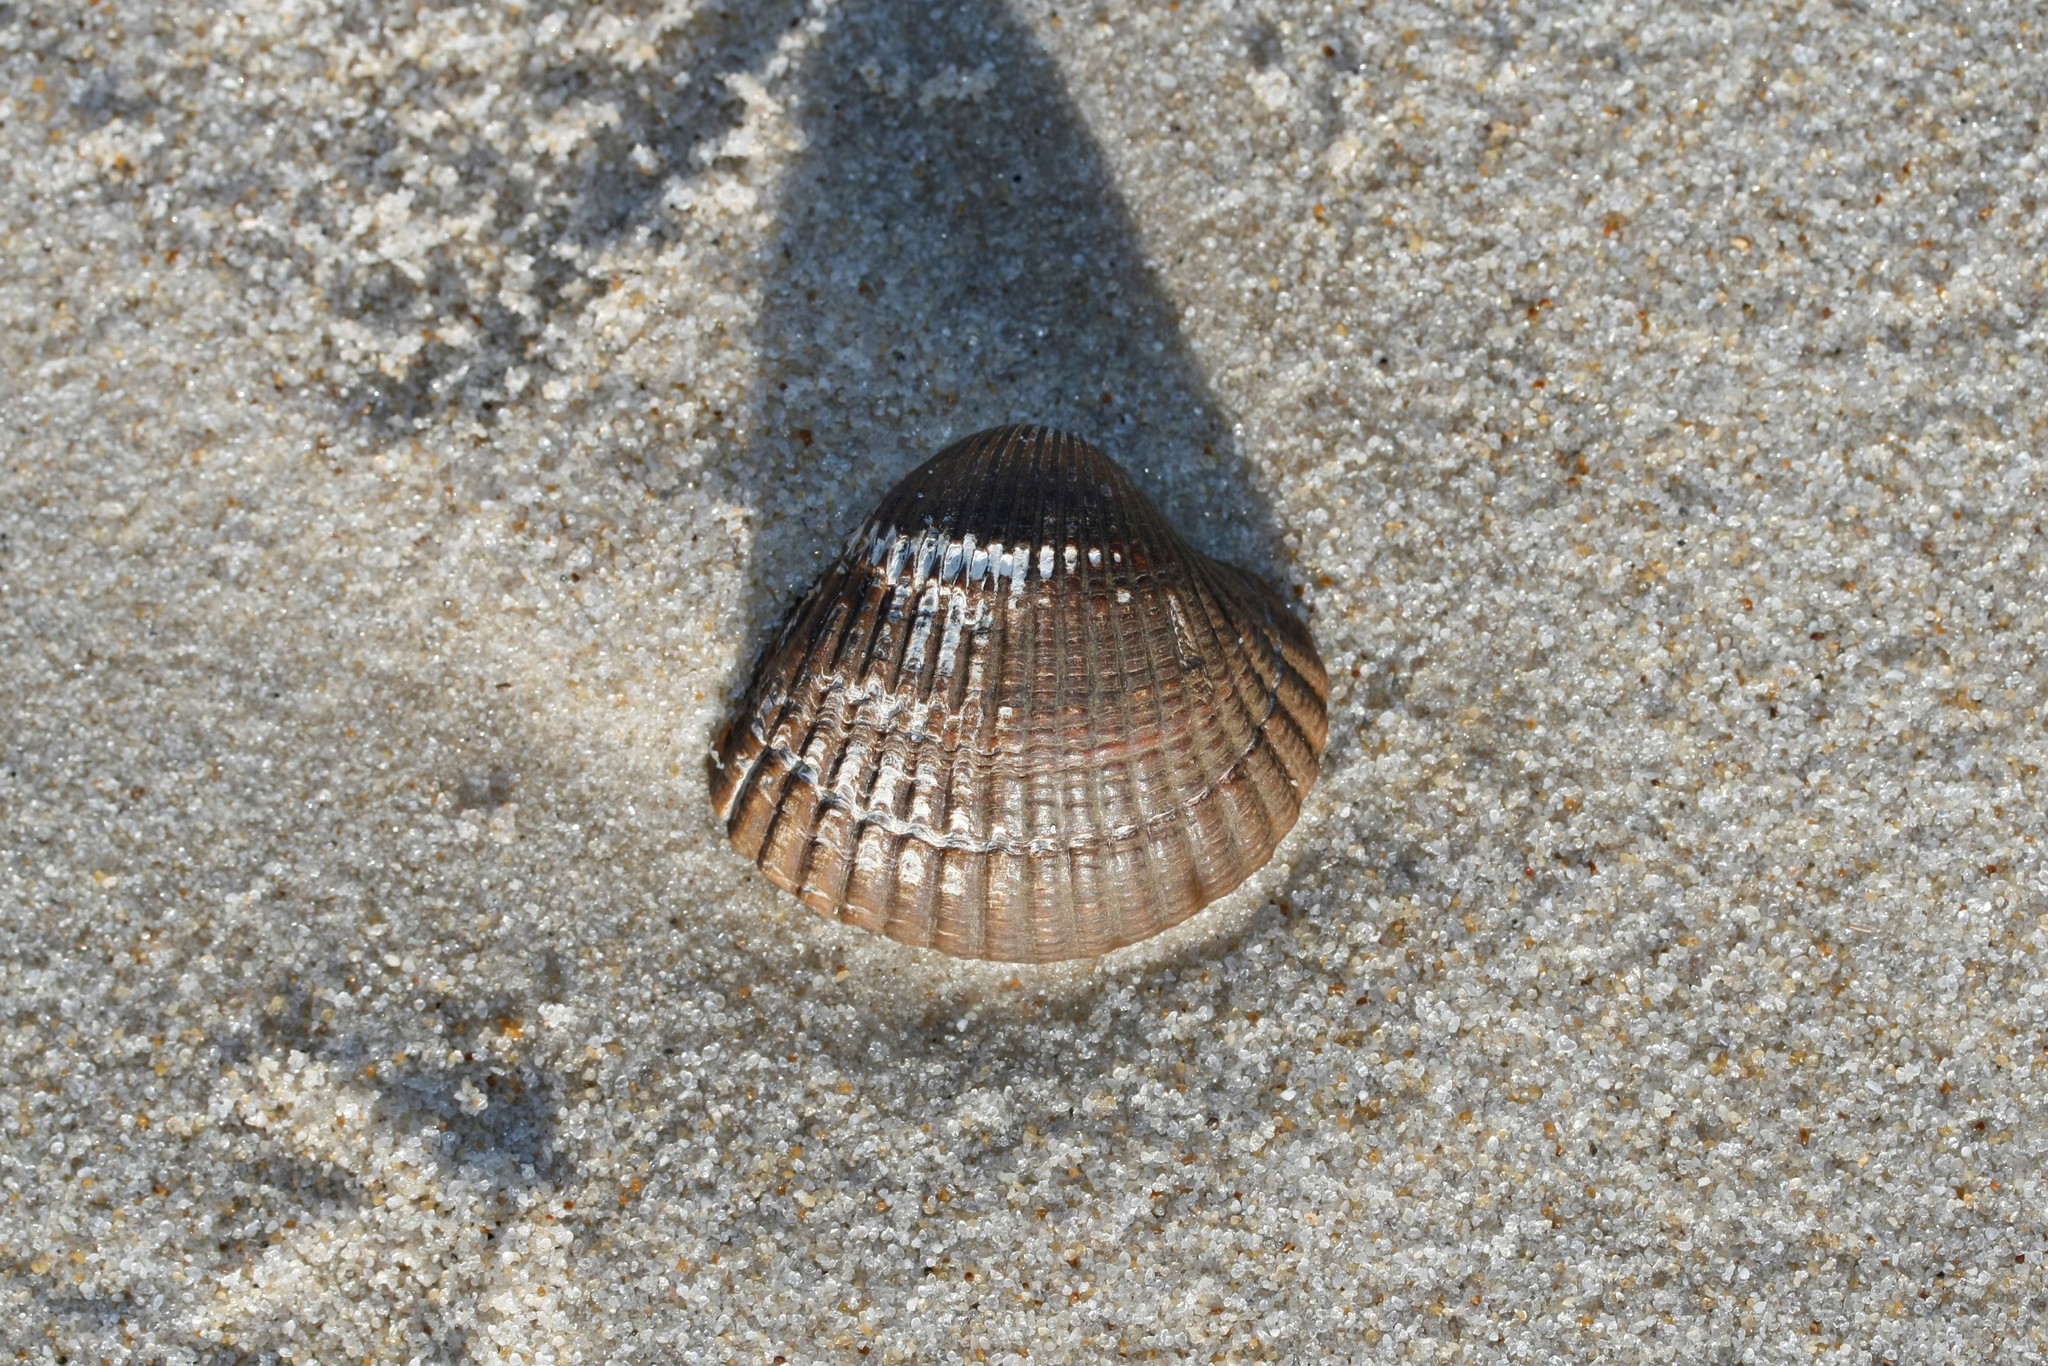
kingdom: Animalia
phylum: Mollusca
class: Bivalvia
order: Cardiida
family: Cardiidae
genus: Cerastoderma
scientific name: Cerastoderma edule
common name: Common cockle
